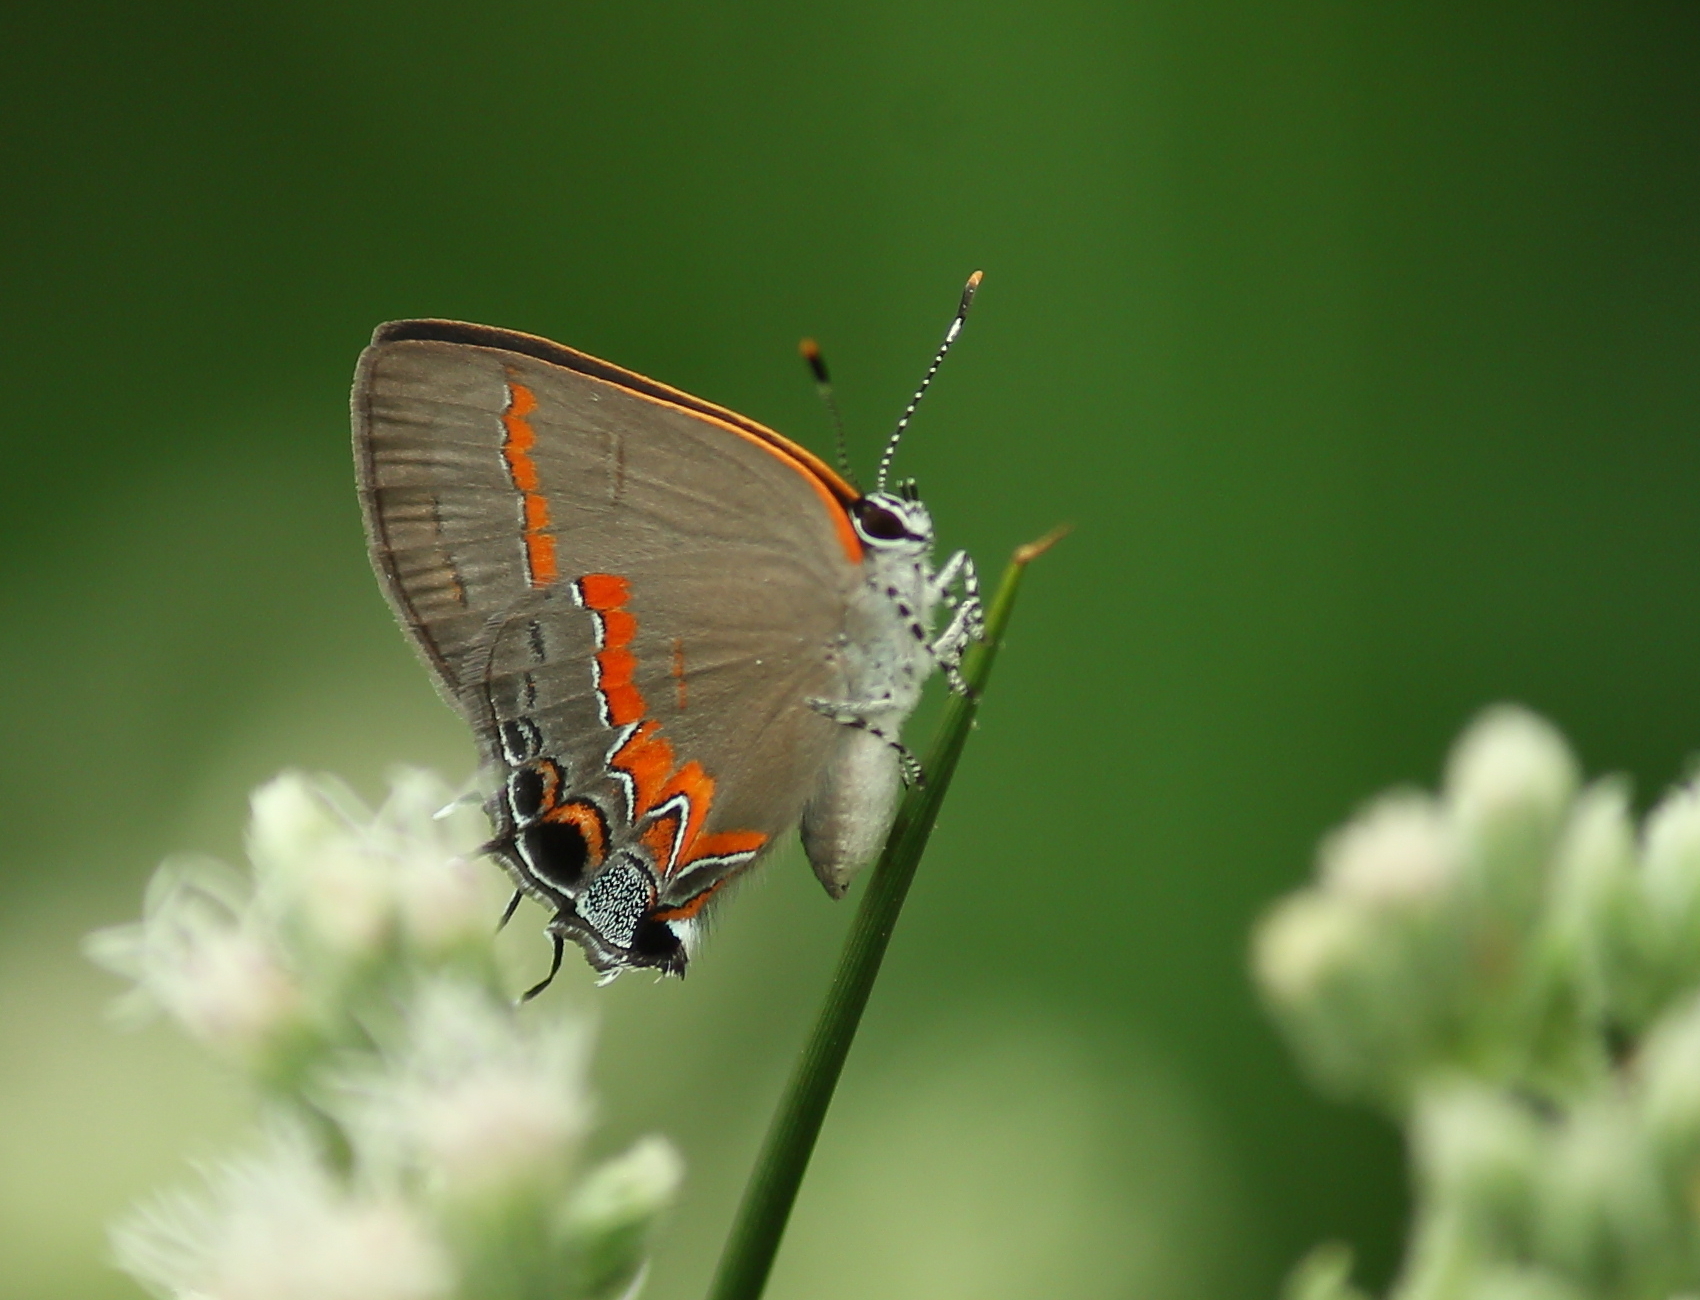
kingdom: Animalia
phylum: Arthropoda
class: Insecta
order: Lepidoptera
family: Lycaenidae
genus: Calycopis
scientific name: Calycopis cecrops
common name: Red-banded hairstreak
